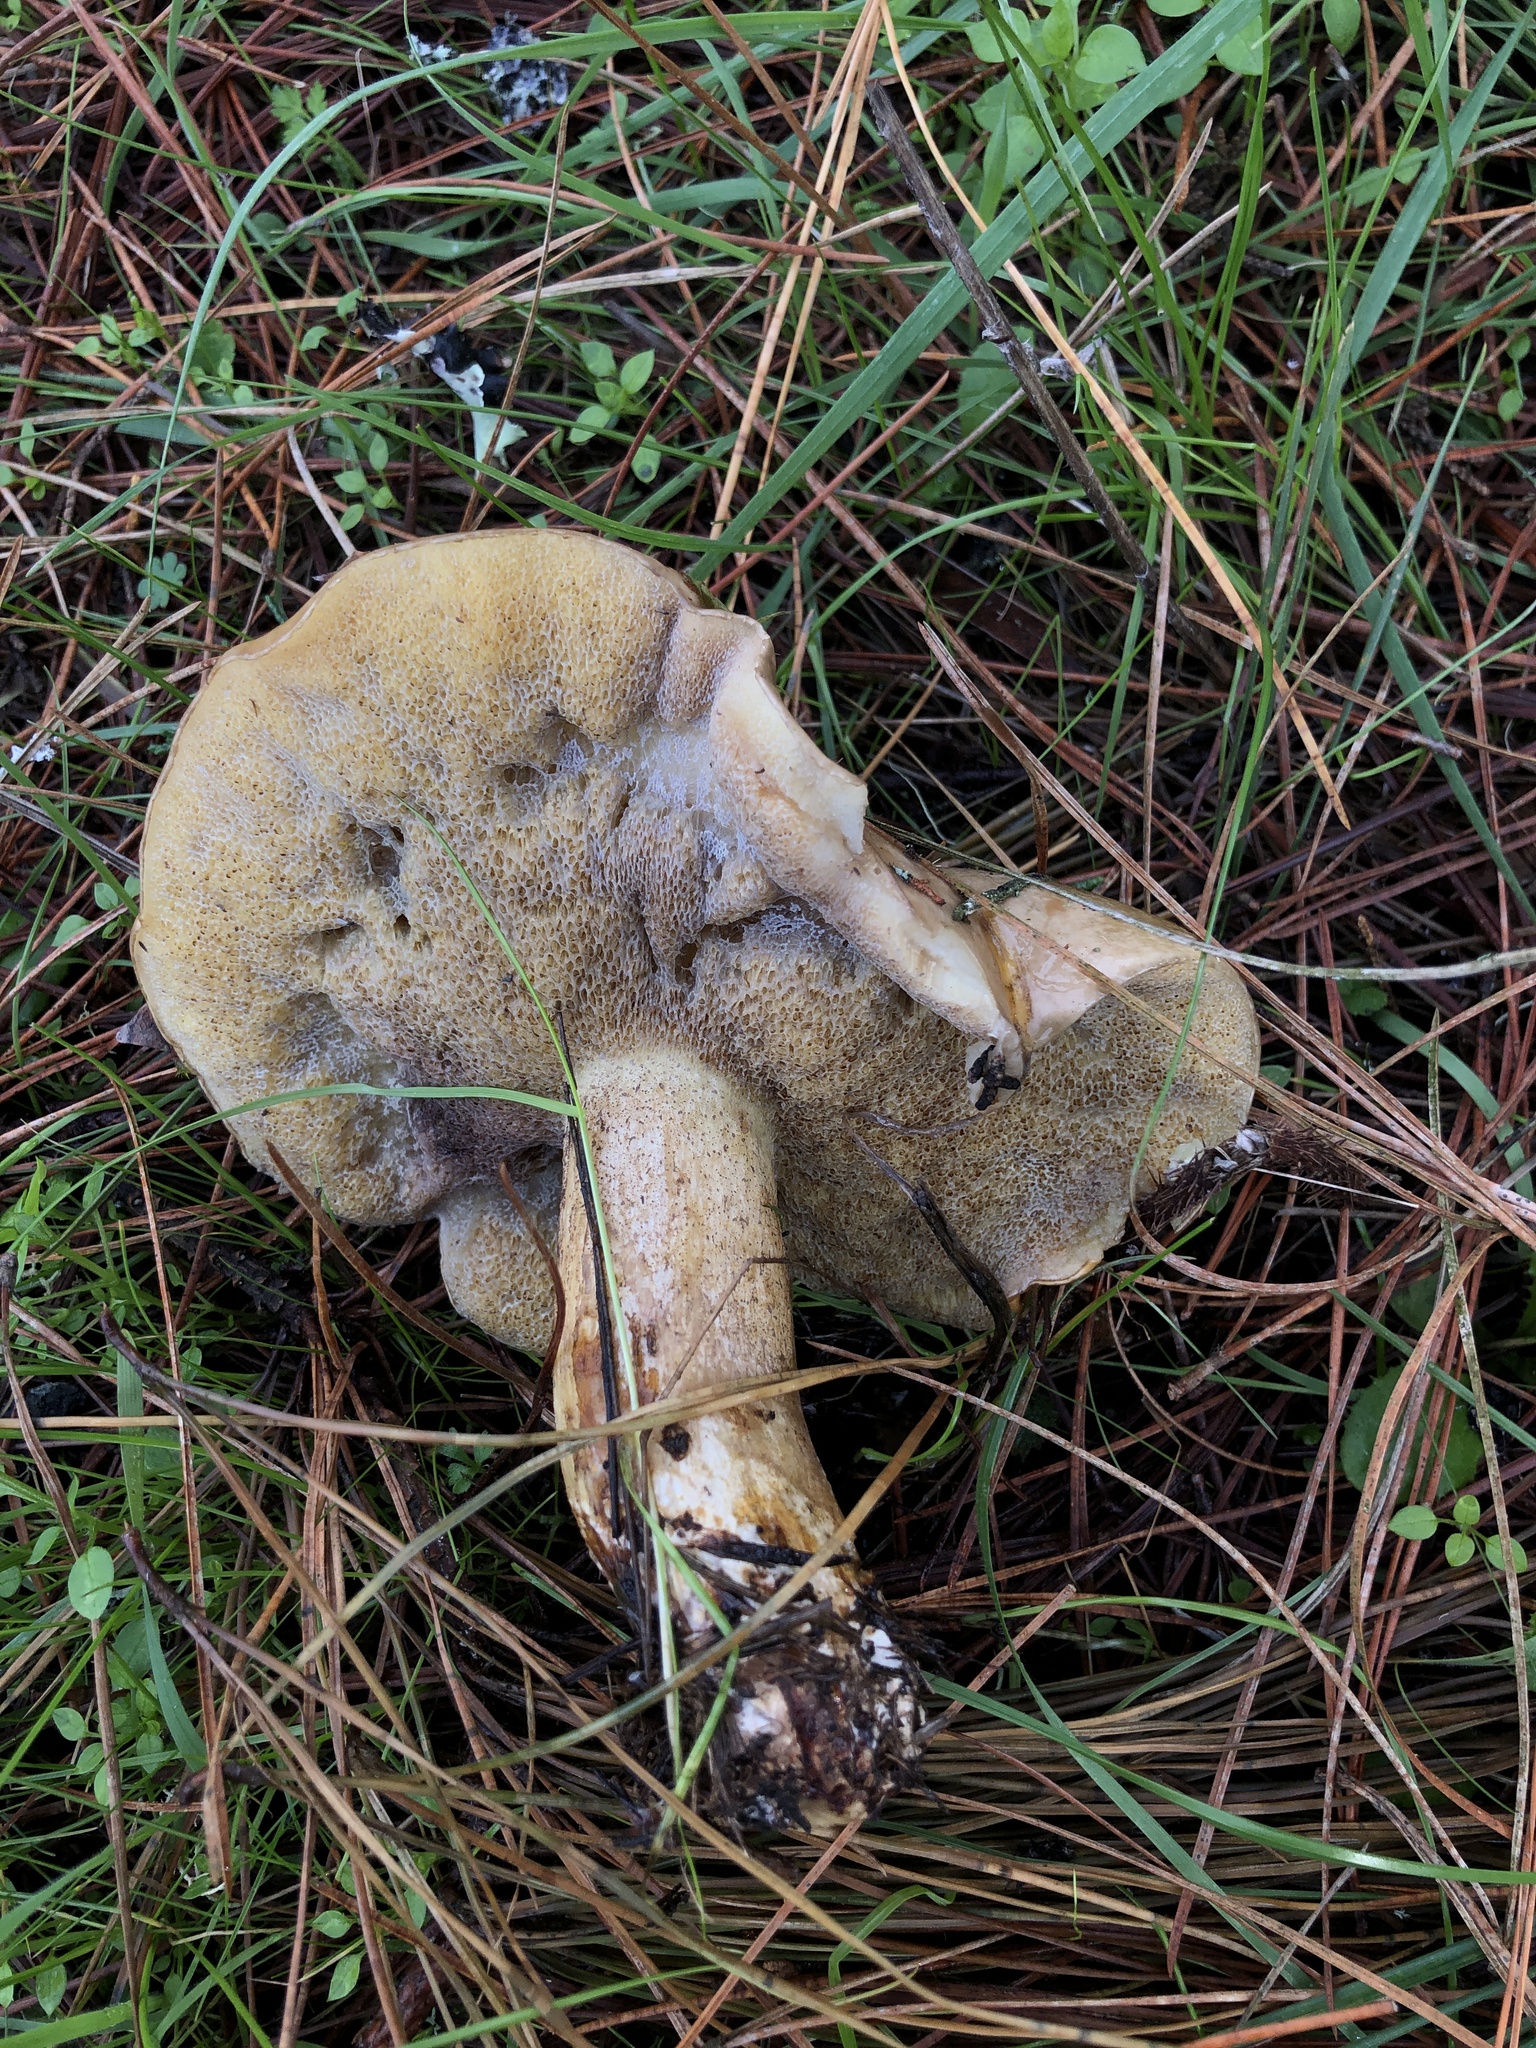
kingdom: Fungi
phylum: Basidiomycota
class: Agaricomycetes
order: Boletales
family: Suillaceae
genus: Suillus
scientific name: Suillus pungens
